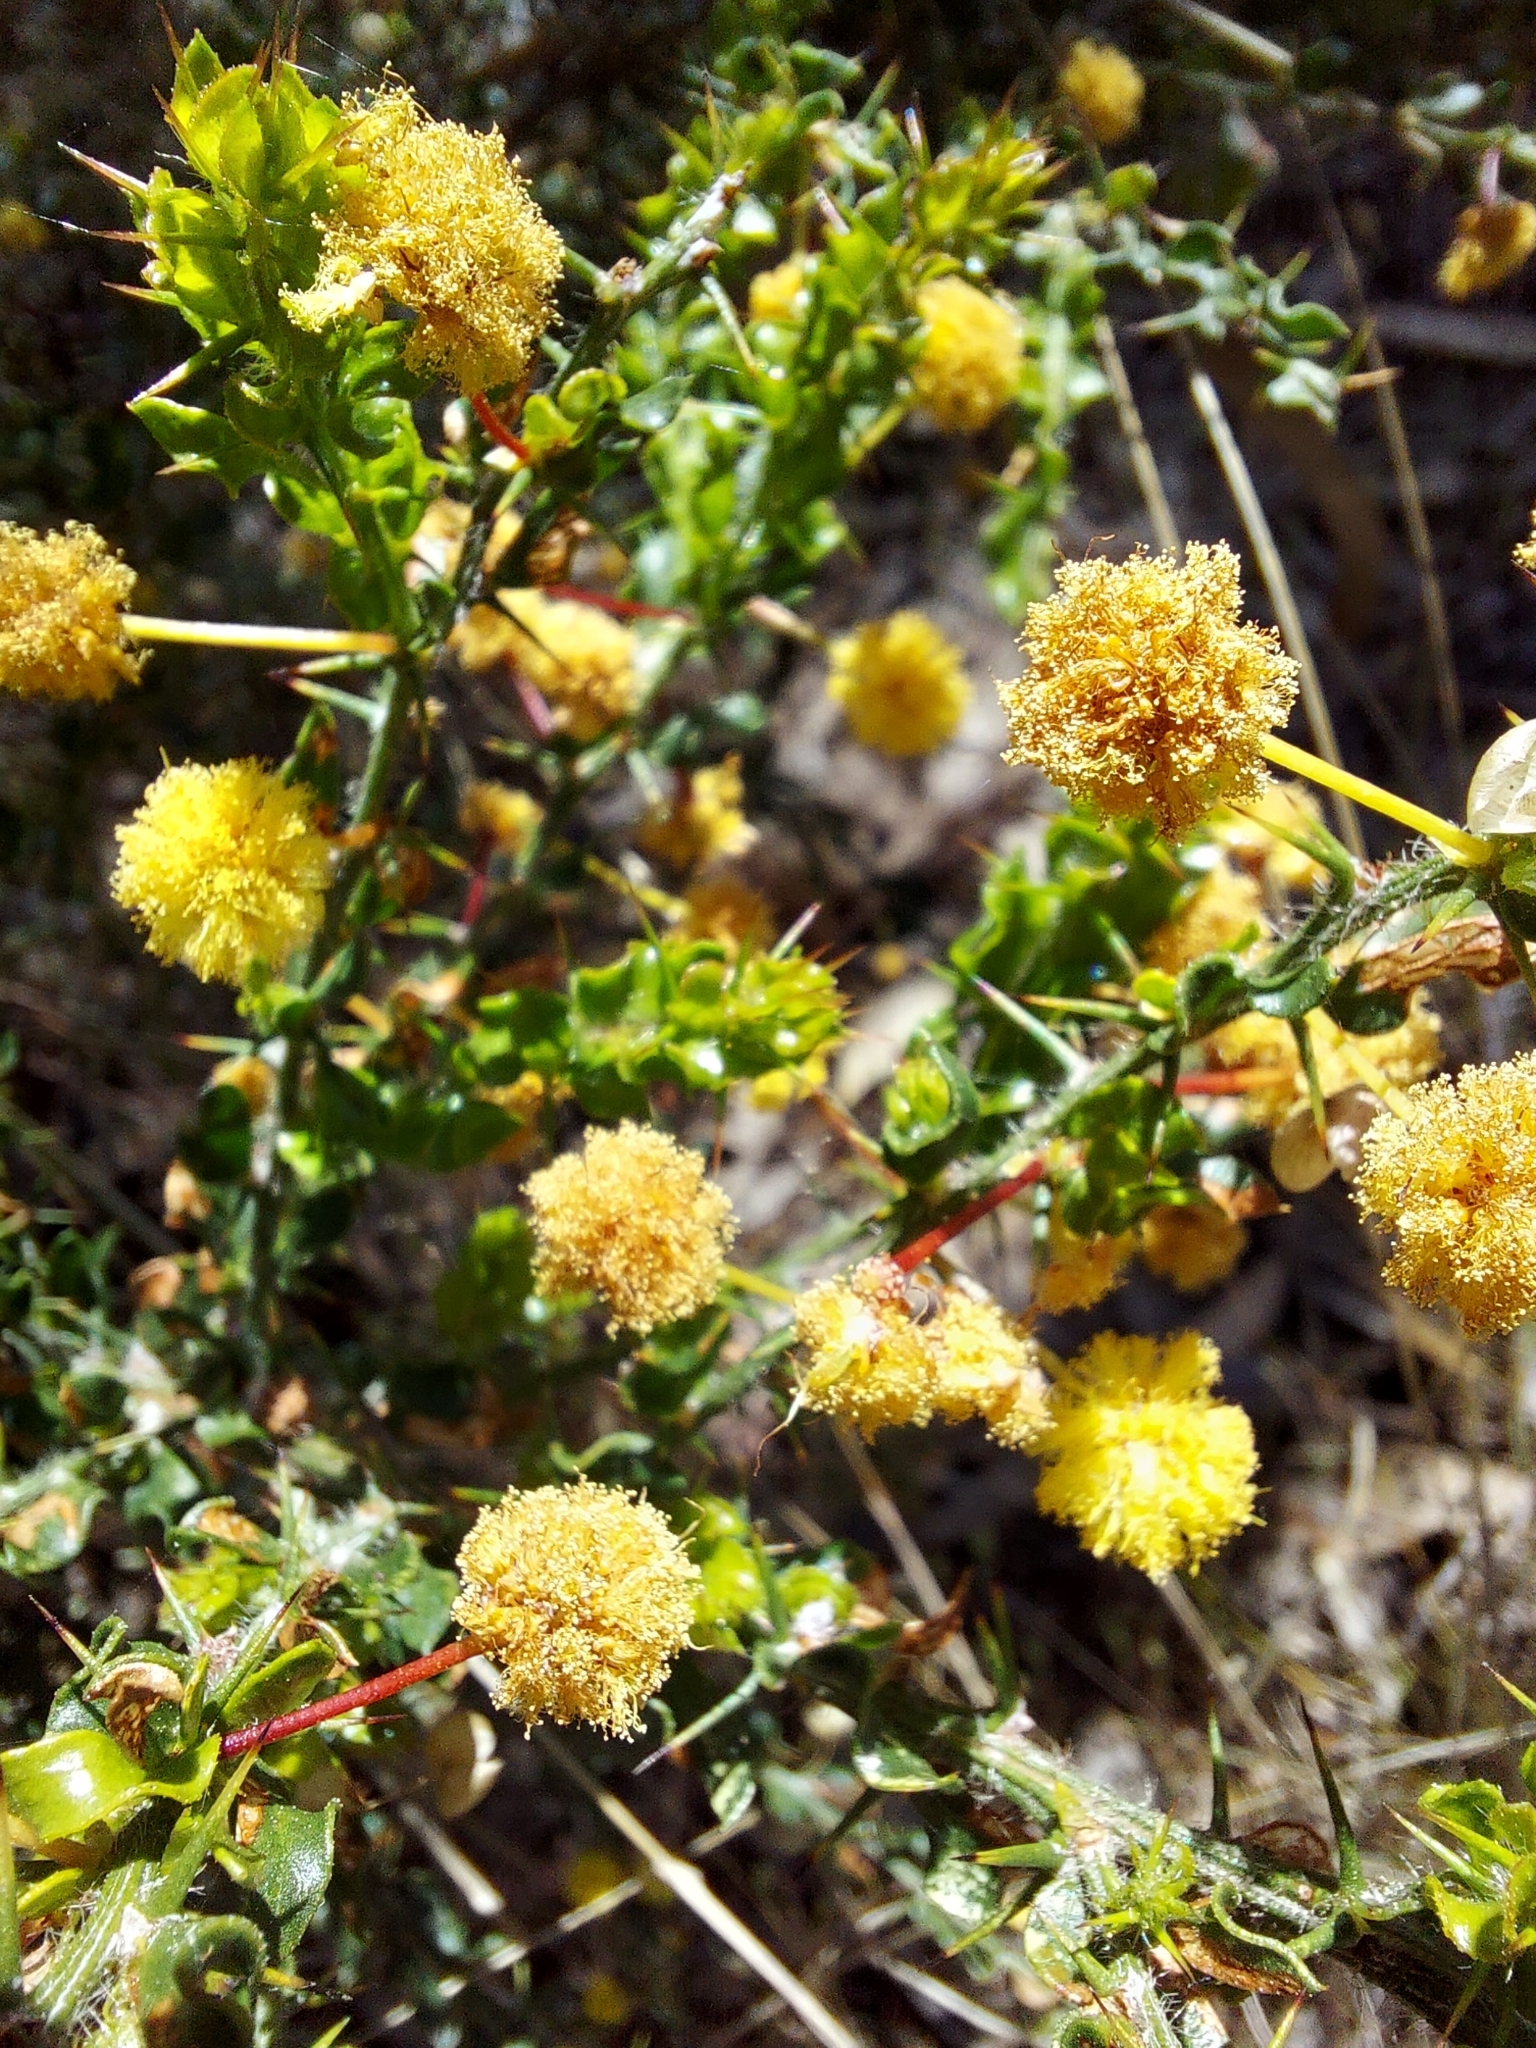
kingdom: Plantae
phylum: Tracheophyta
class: Magnoliopsida
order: Fabales
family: Fabaceae
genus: Acacia
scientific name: Acacia paradoxa
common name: Paradox acacia
